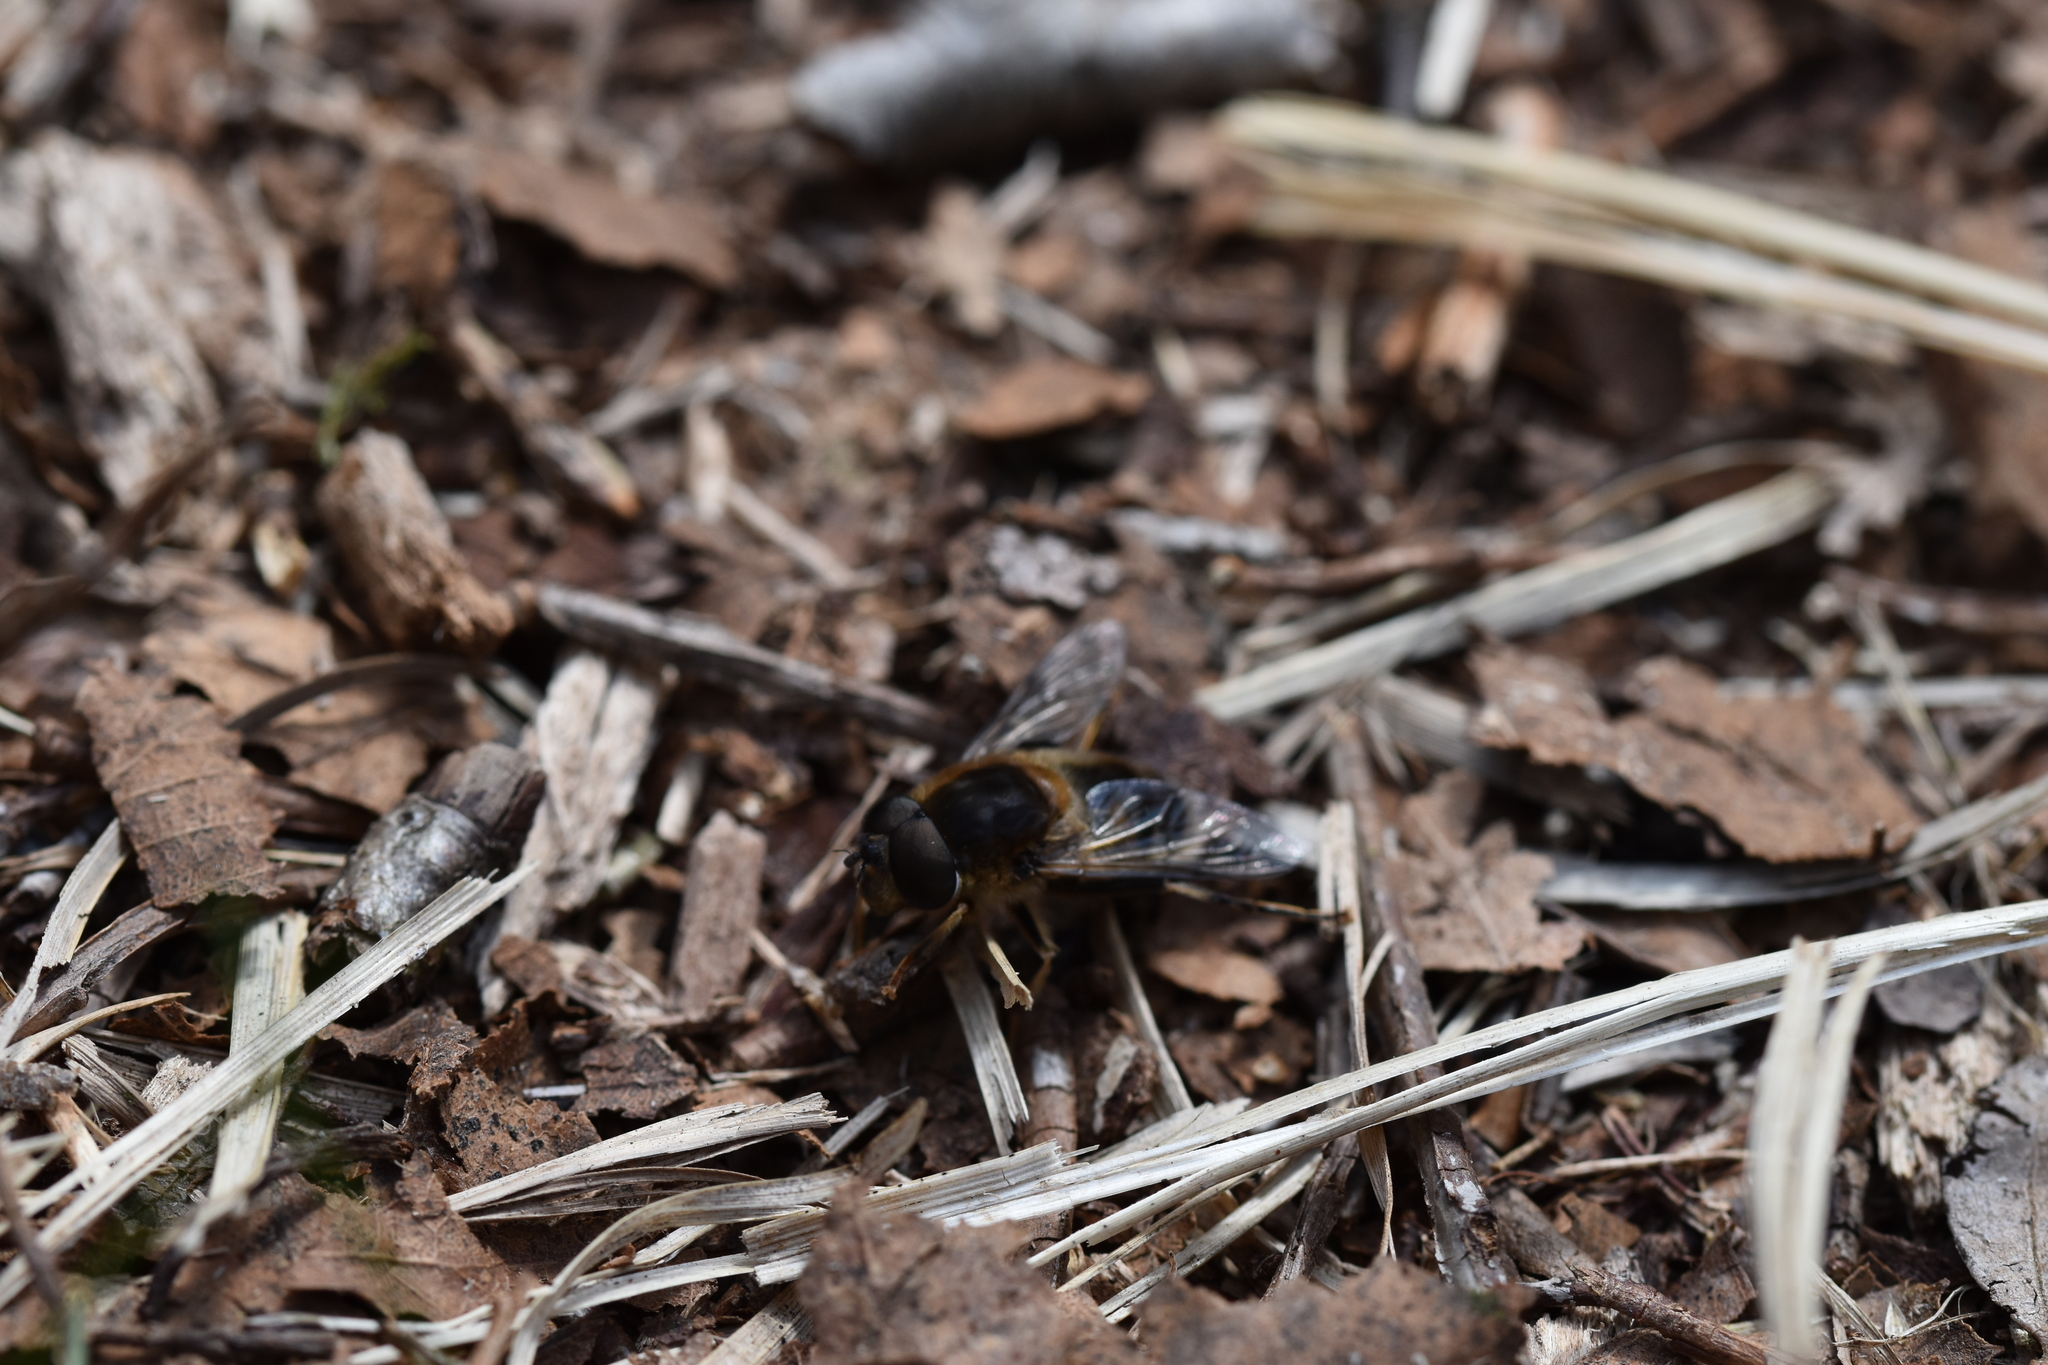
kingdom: Animalia
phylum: Arthropoda
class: Insecta
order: Diptera
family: Syrphidae
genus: Eristalis
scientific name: Eristalis pertinax
